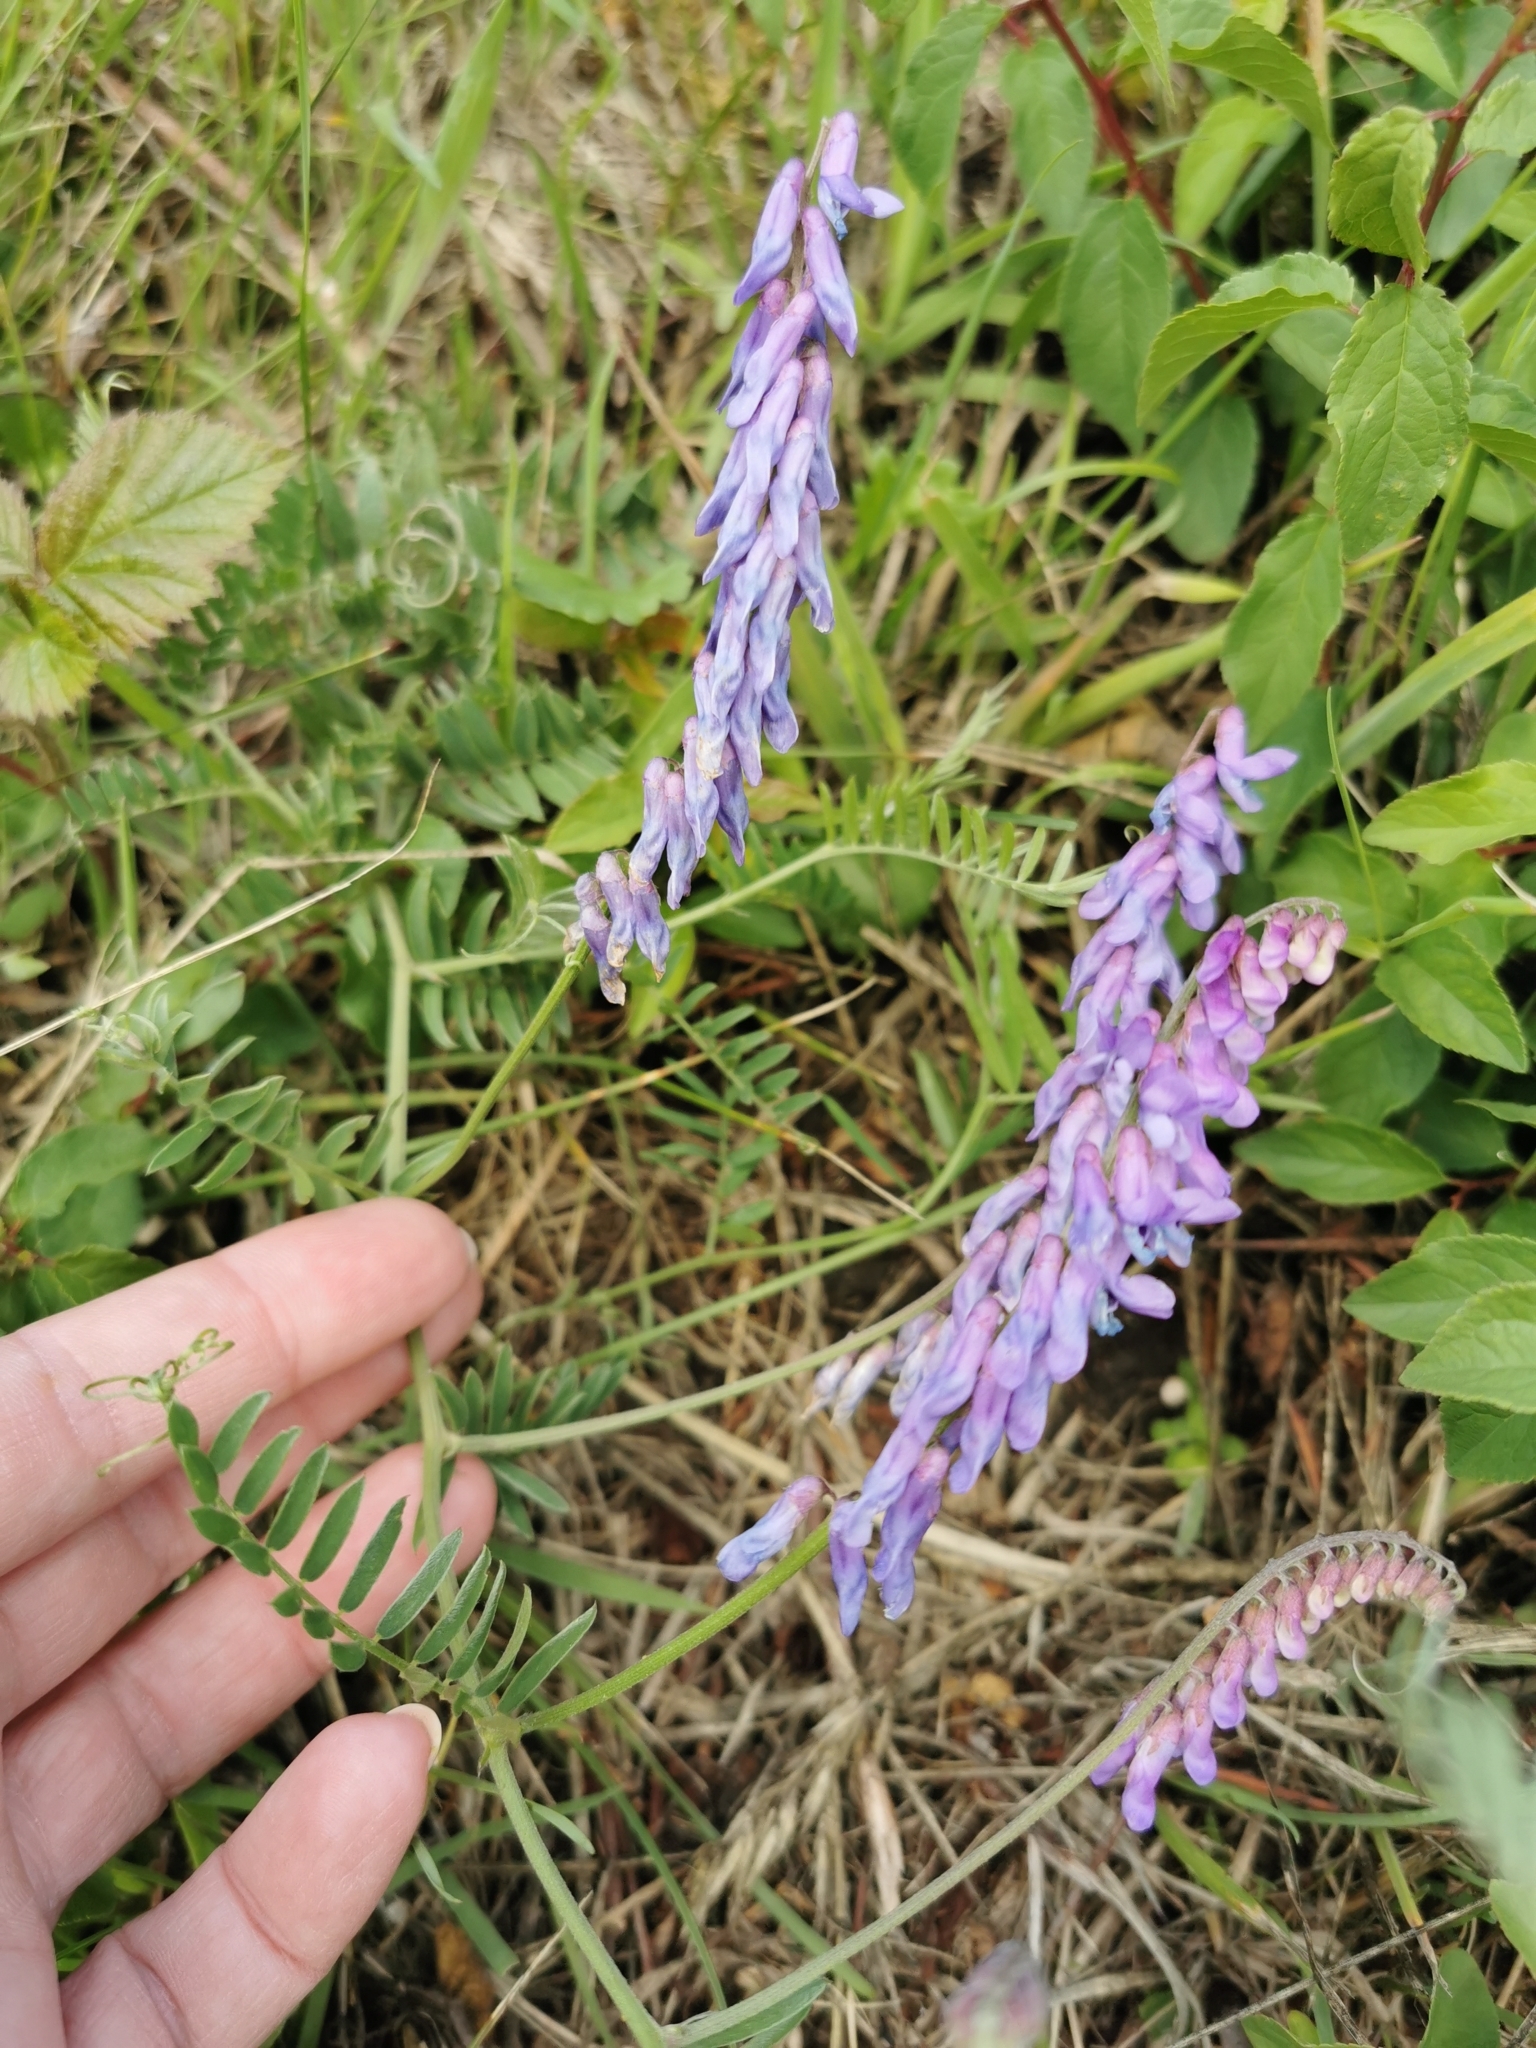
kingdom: Plantae
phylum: Tracheophyta
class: Magnoliopsida
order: Fabales
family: Fabaceae
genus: Vicia
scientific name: Vicia cracca
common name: Bird vetch
